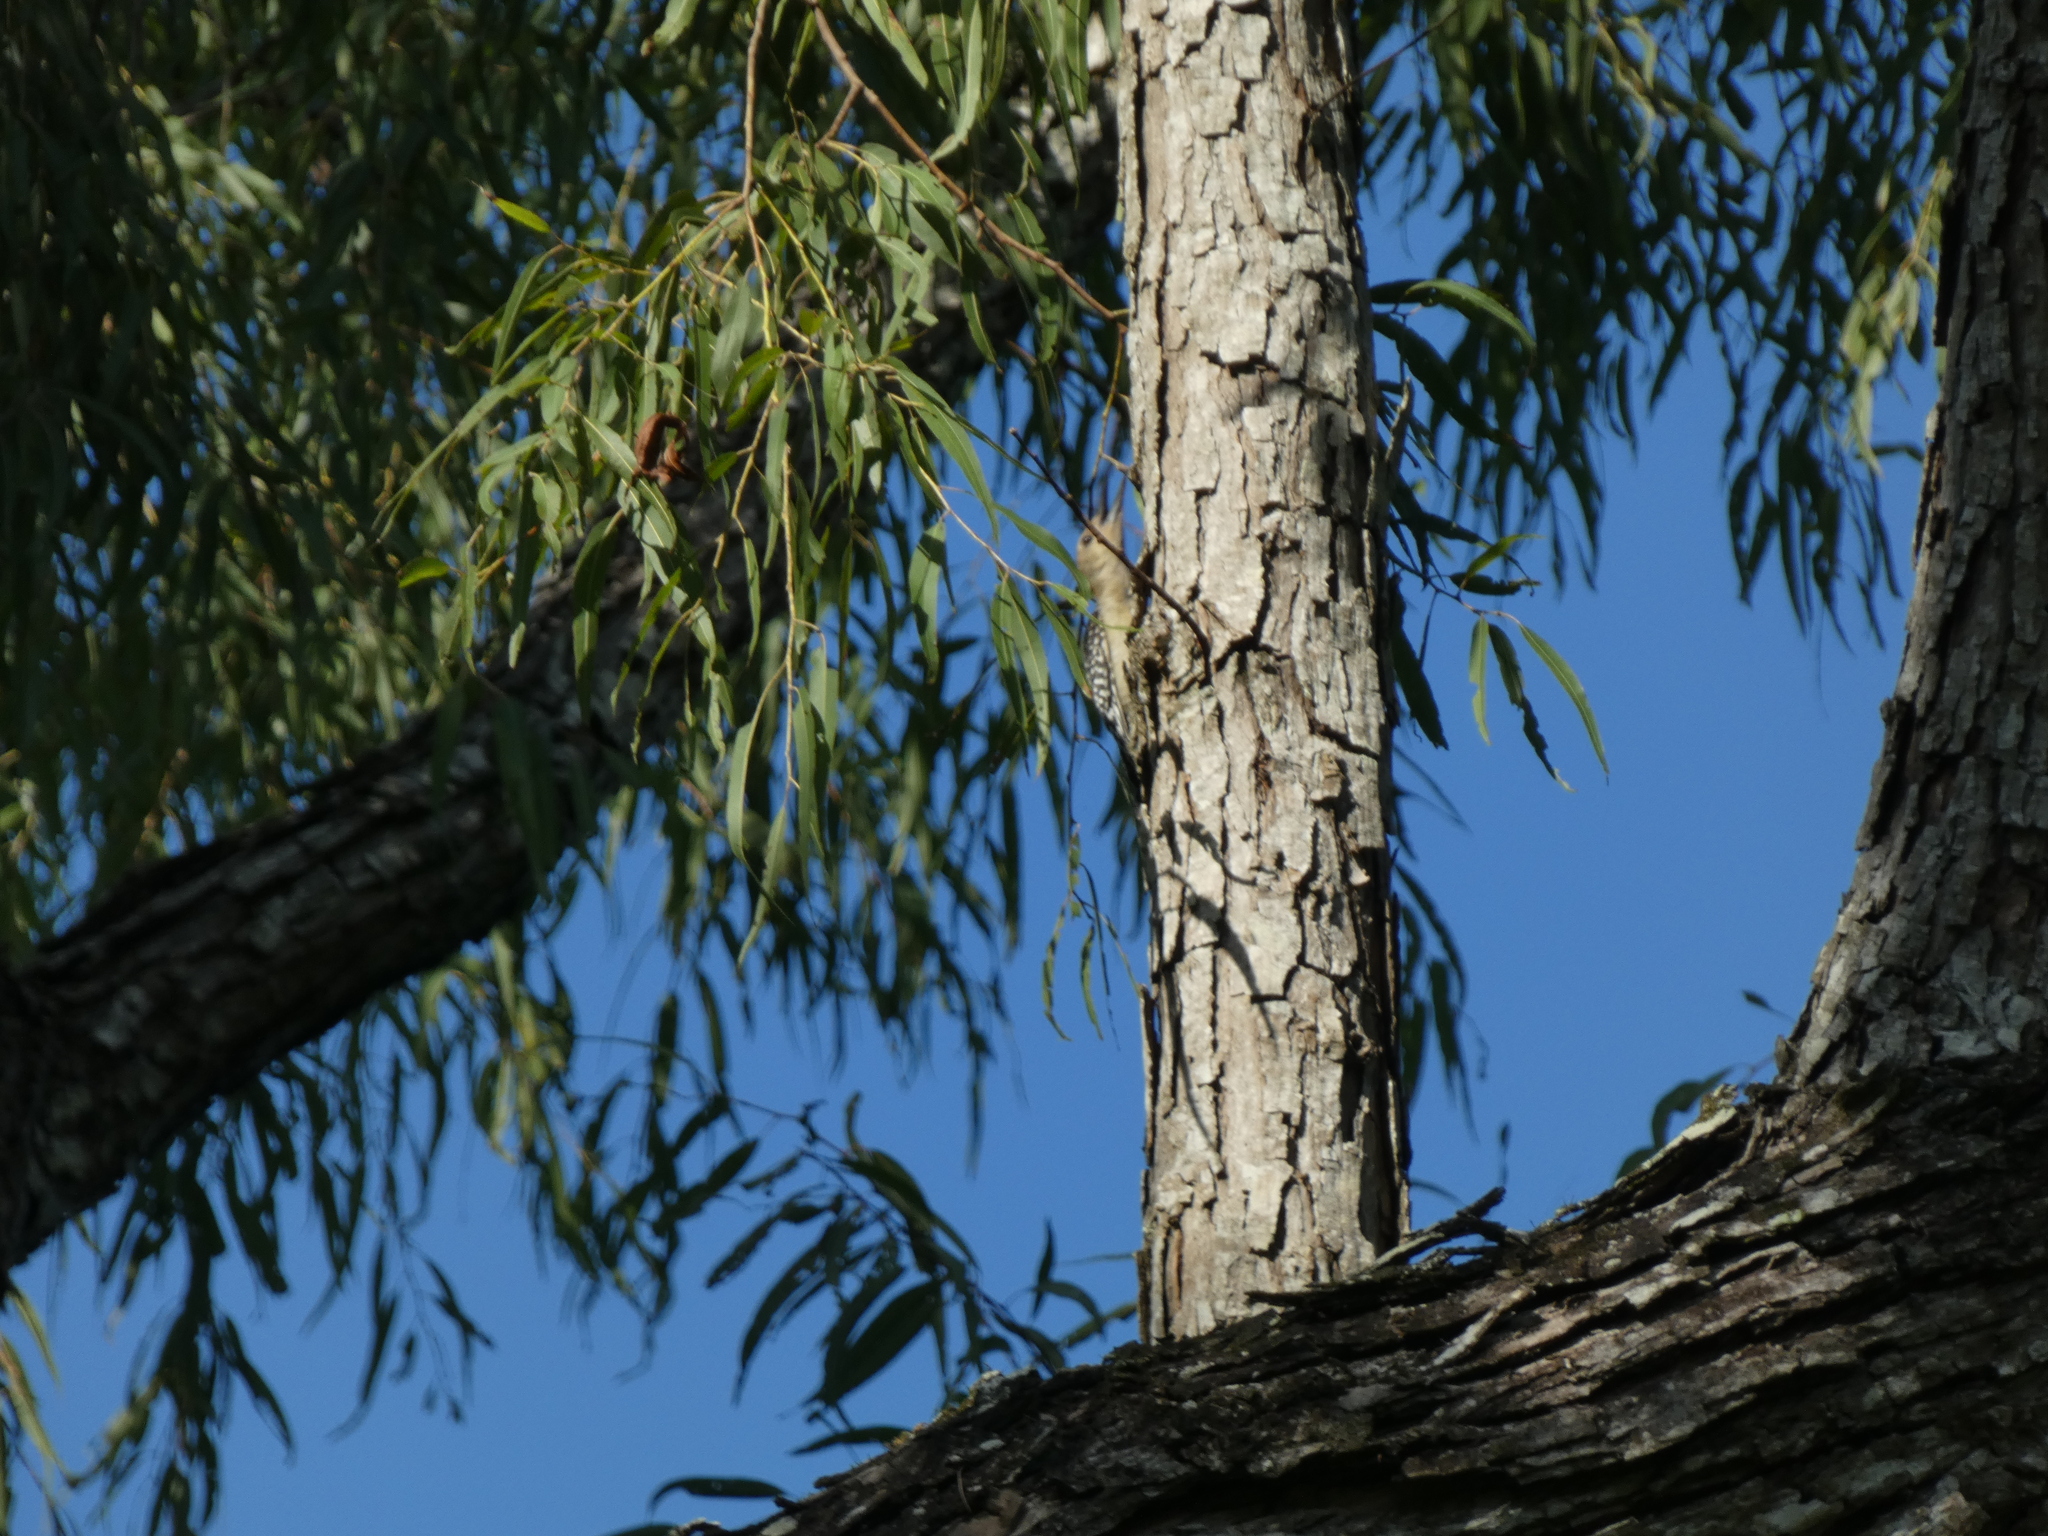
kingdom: Animalia
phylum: Chordata
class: Aves
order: Piciformes
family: Picidae
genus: Melanerpes
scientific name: Melanerpes carolinus
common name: Red-bellied woodpecker
